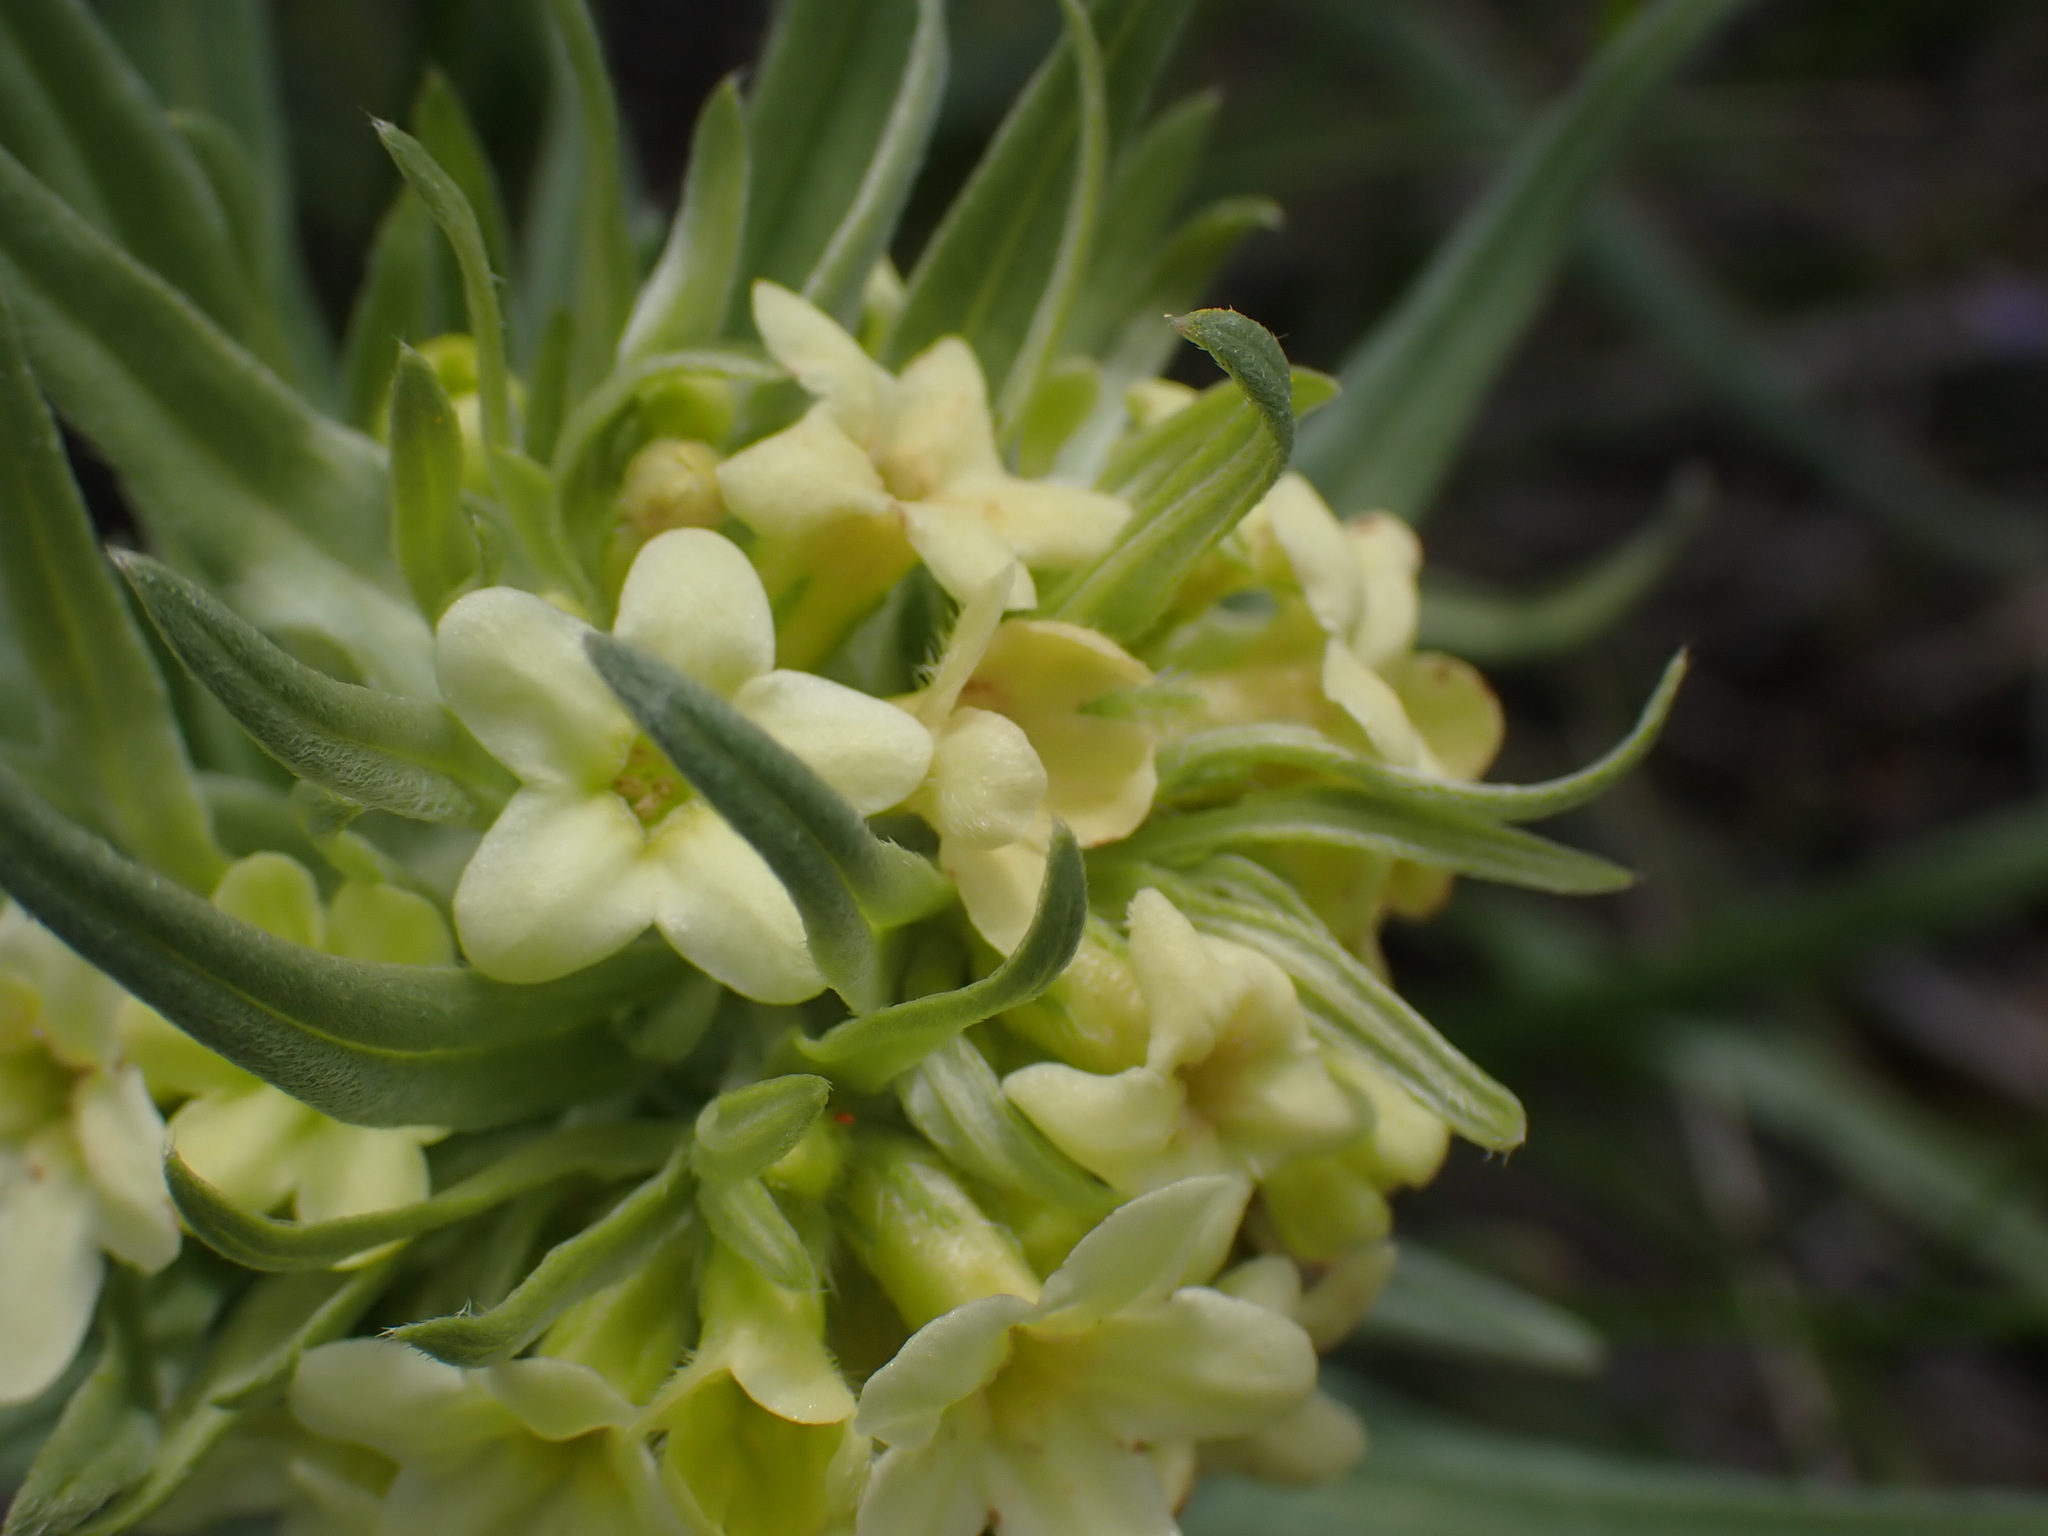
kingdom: Plantae
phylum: Tracheophyta
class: Magnoliopsida
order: Boraginales
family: Boraginaceae
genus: Lithospermum
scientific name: Lithospermum ruderale
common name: Western gromwell
